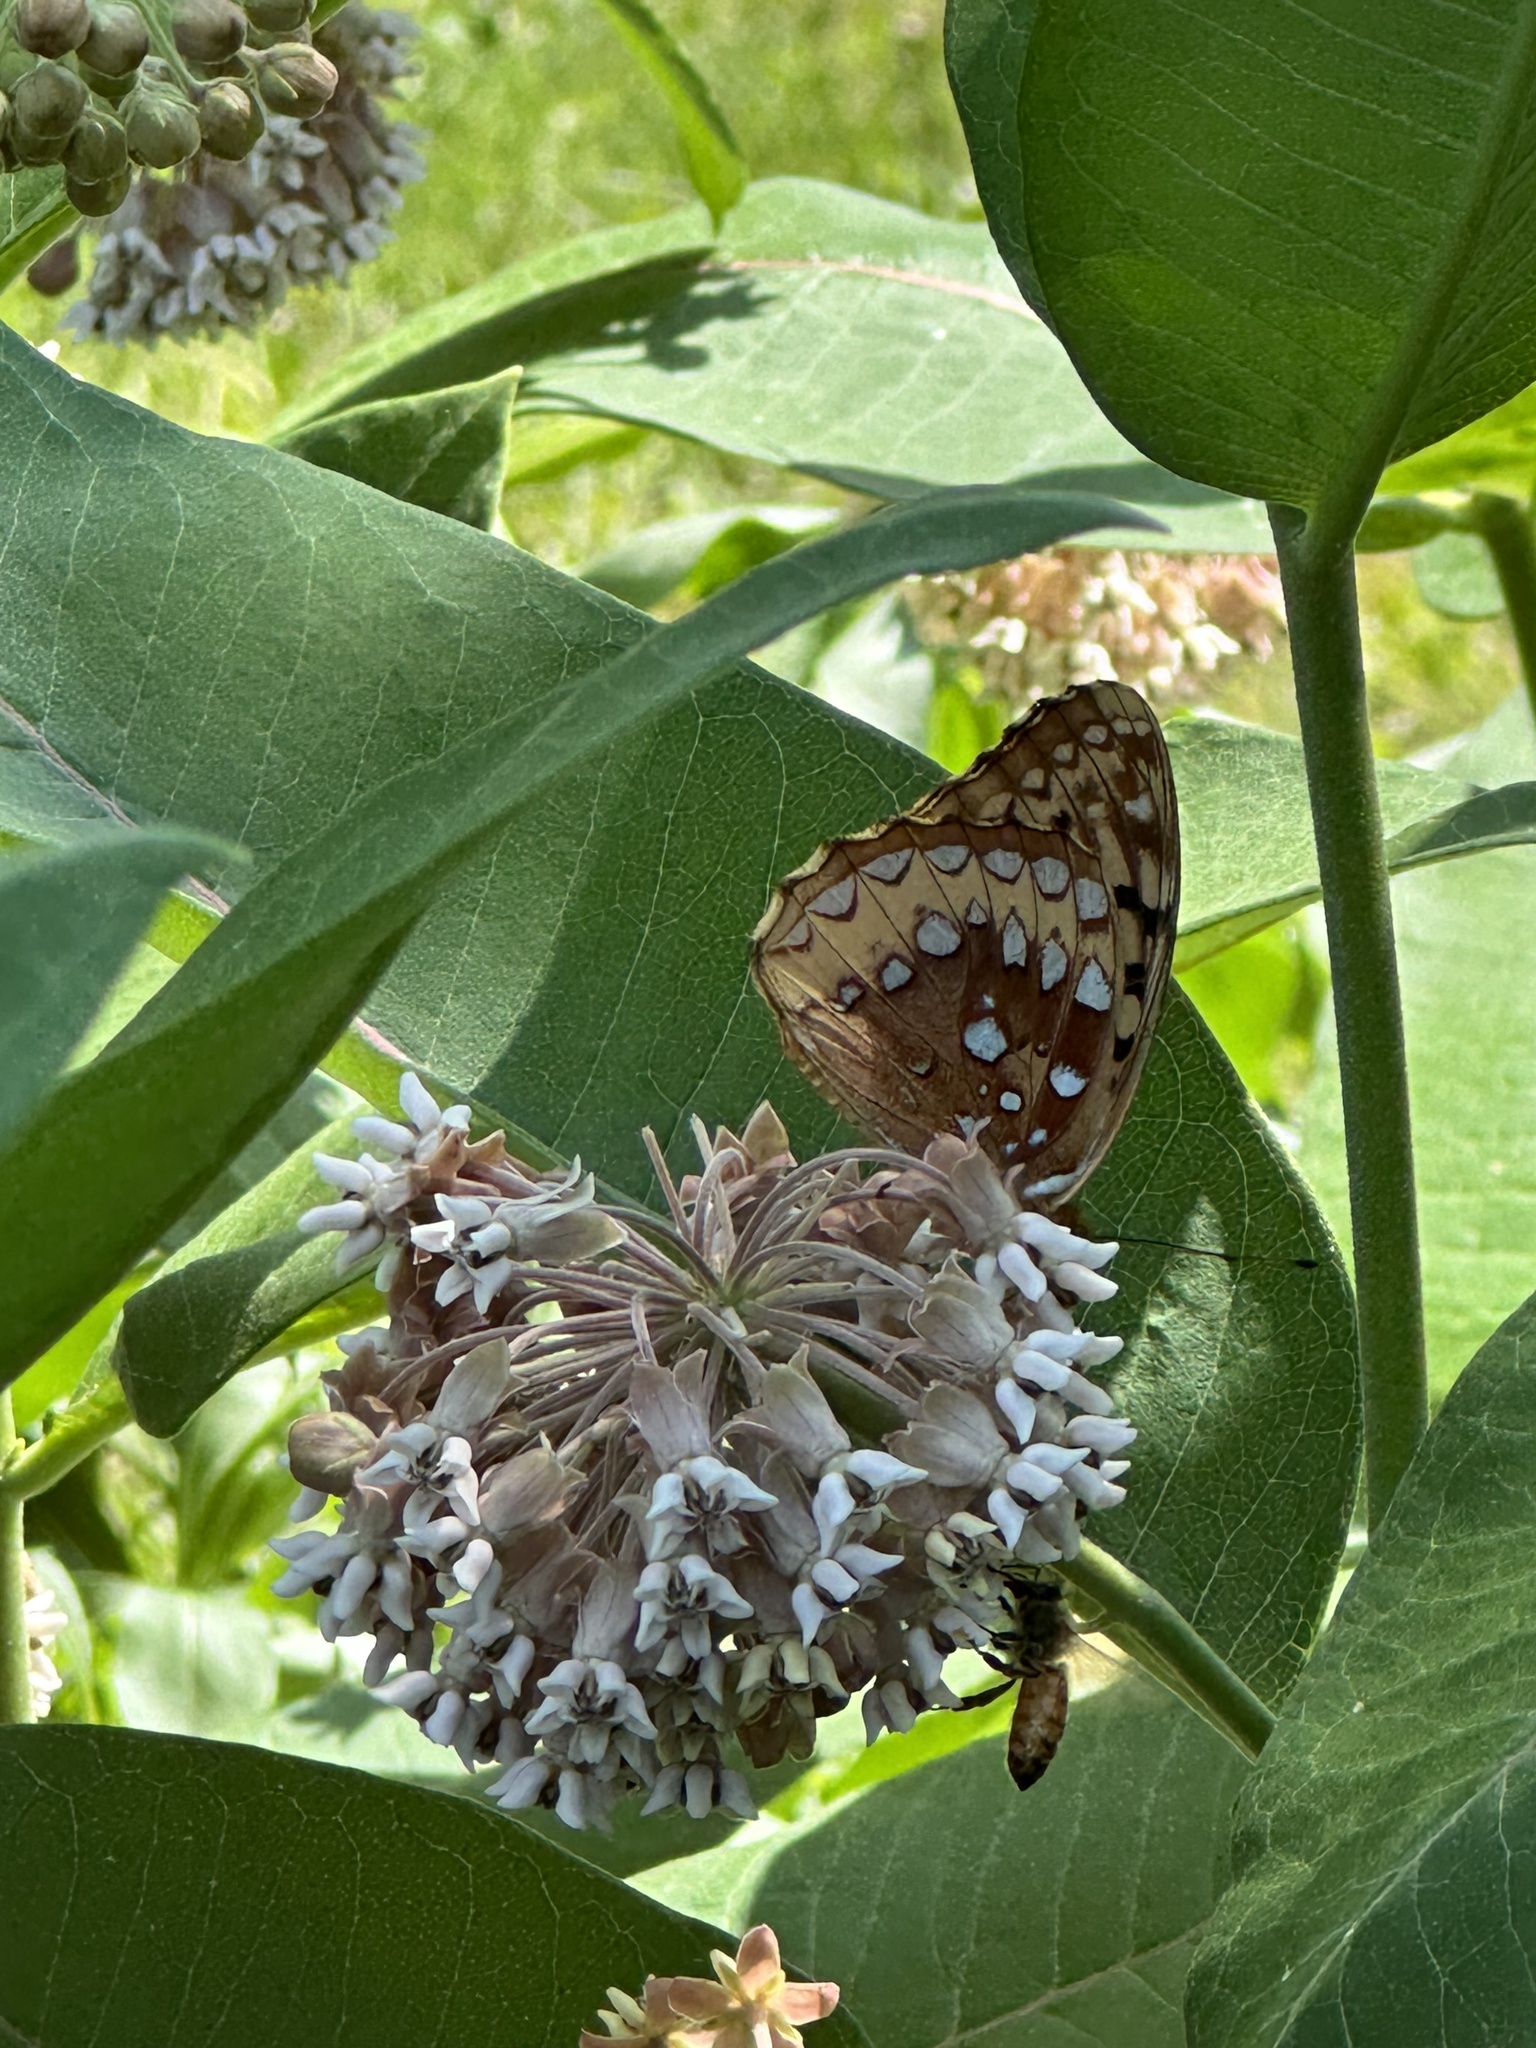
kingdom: Animalia
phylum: Arthropoda
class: Insecta
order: Lepidoptera
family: Nymphalidae
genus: Speyeria
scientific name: Speyeria cybele
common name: Great spangled fritillary
